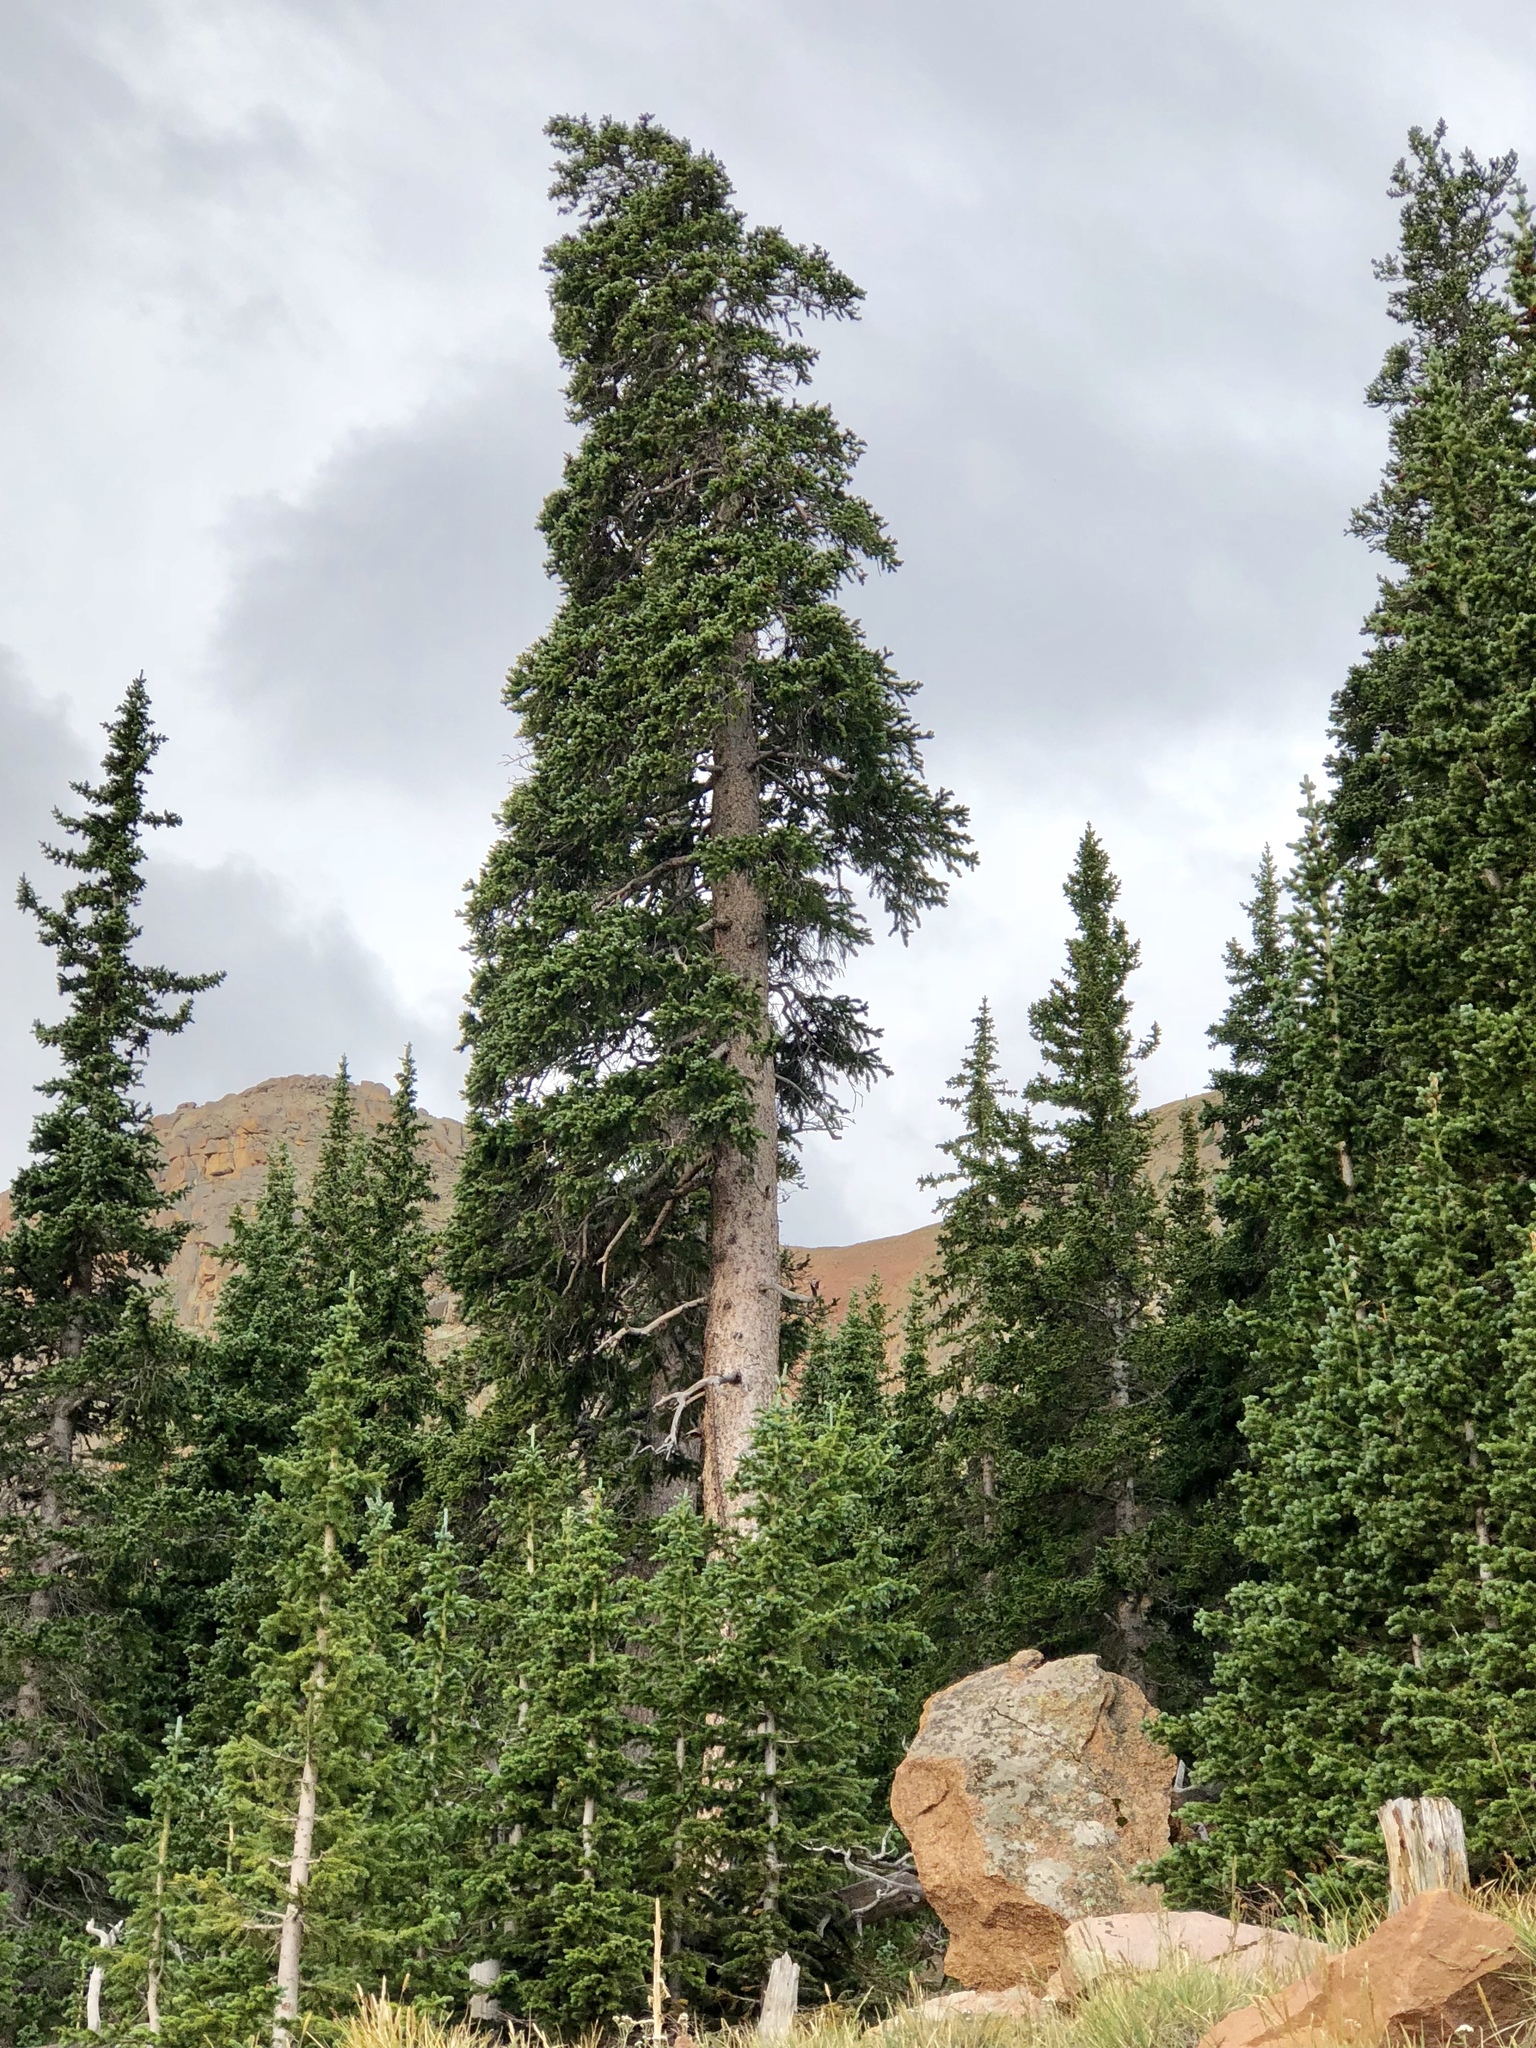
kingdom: Plantae
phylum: Tracheophyta
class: Pinopsida
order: Pinales
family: Pinaceae
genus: Picea
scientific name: Picea engelmannii
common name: Engelmann spruce
